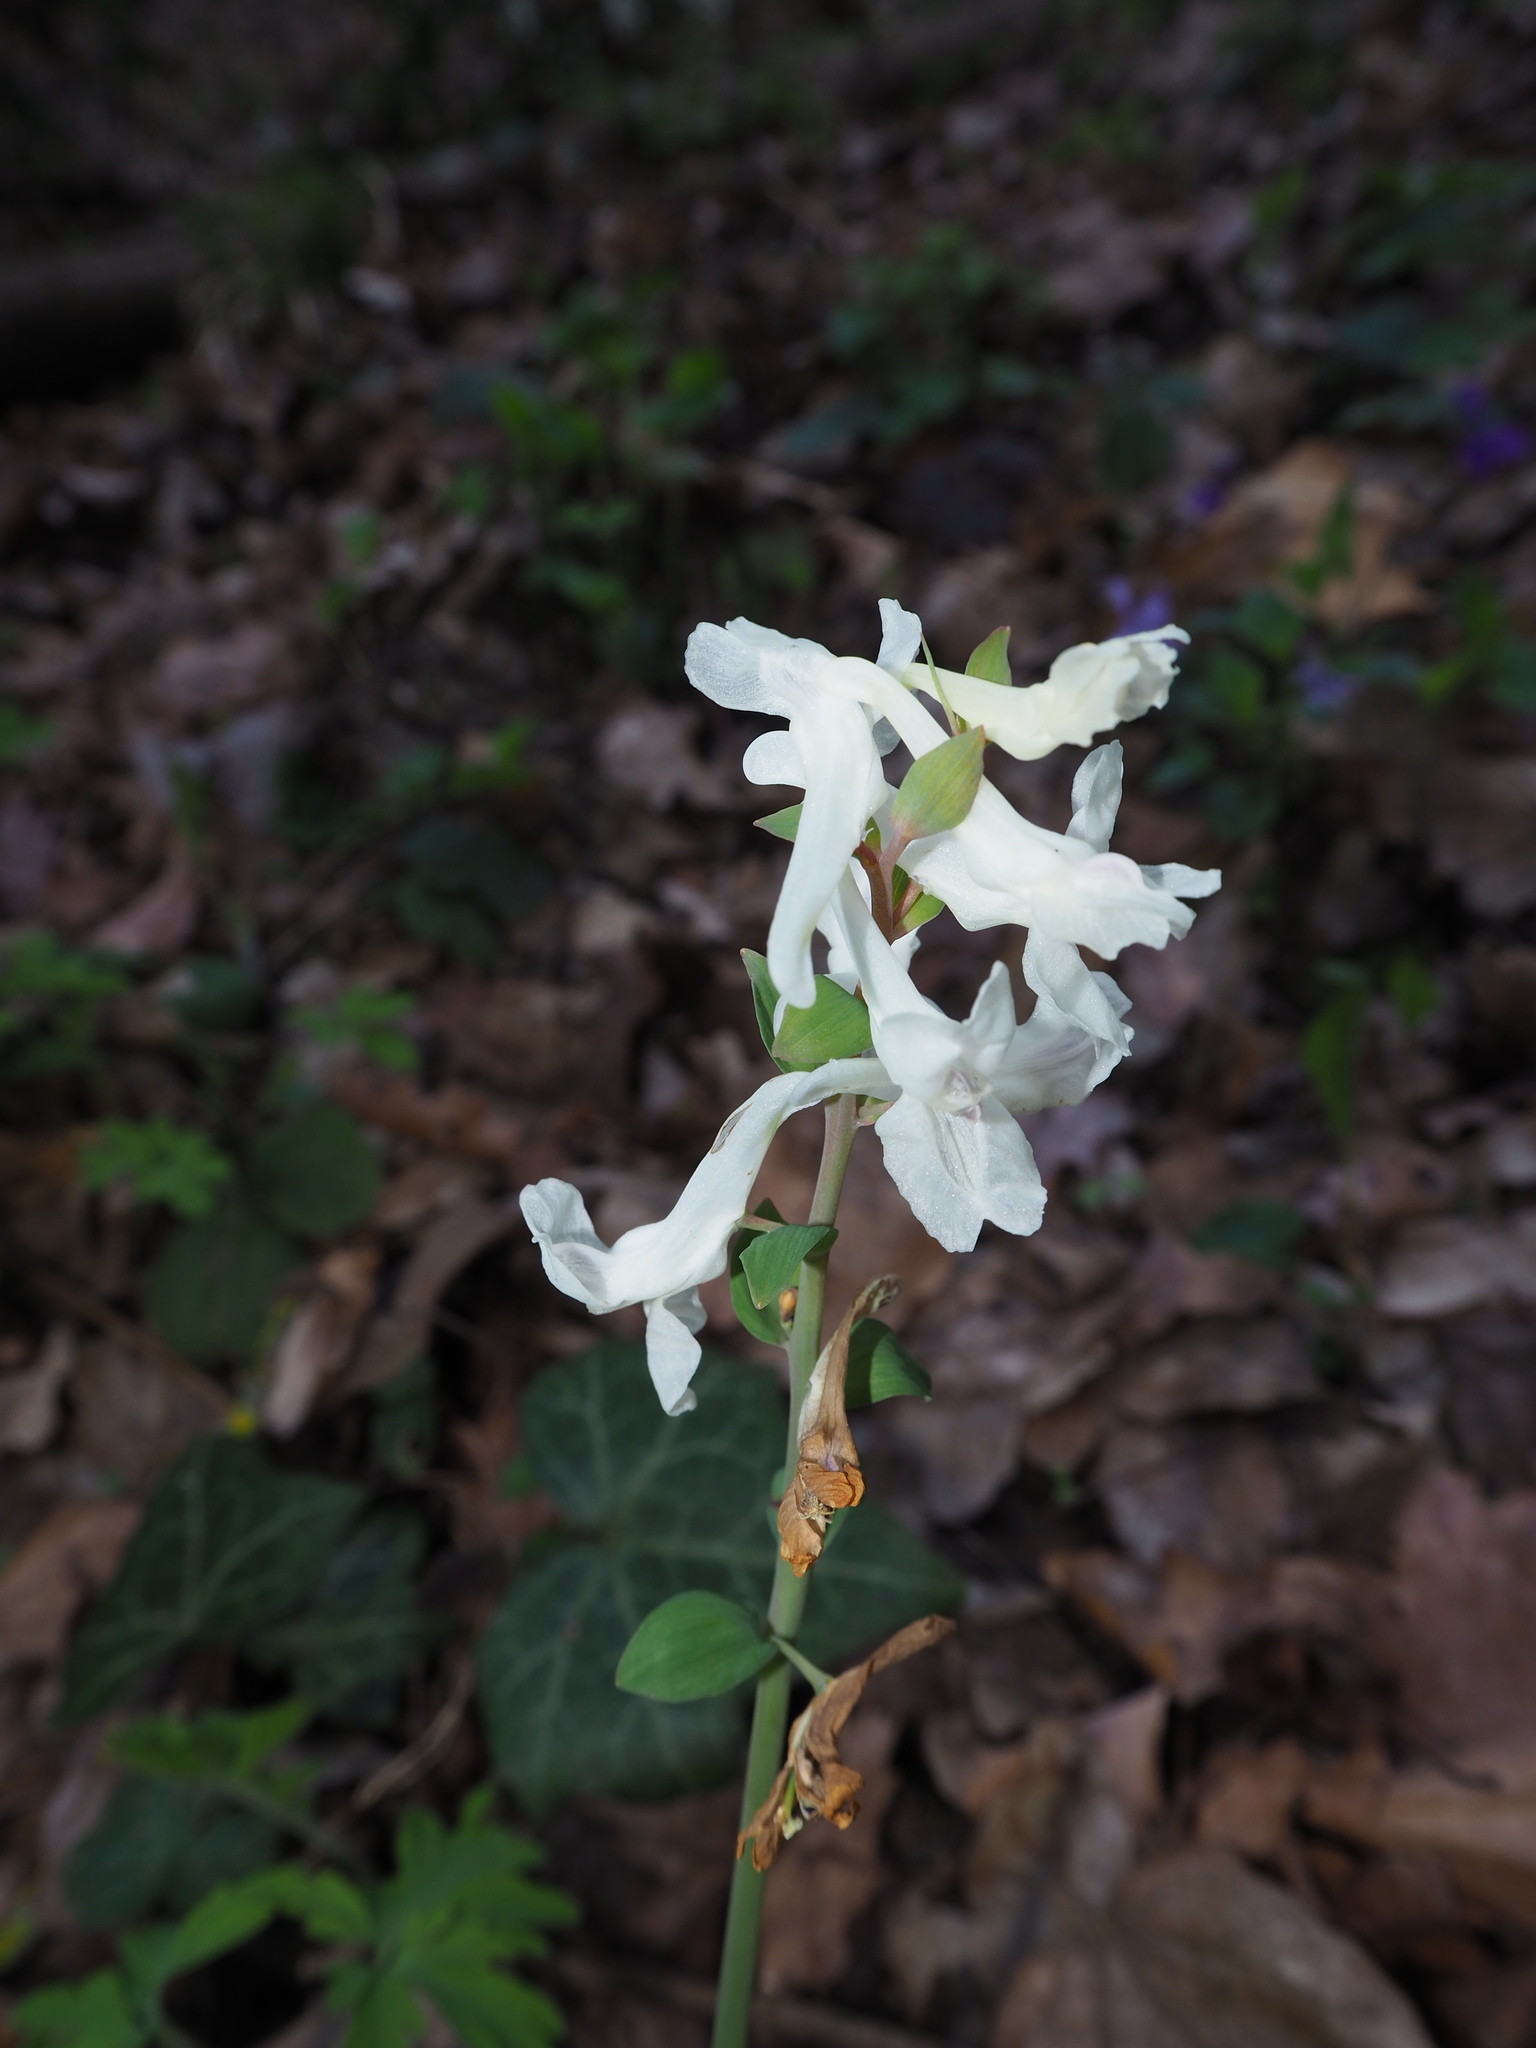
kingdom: Plantae
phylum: Tracheophyta
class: Magnoliopsida
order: Ranunculales
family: Papaveraceae
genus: Corydalis
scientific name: Corydalis cava
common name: Hollowroot
